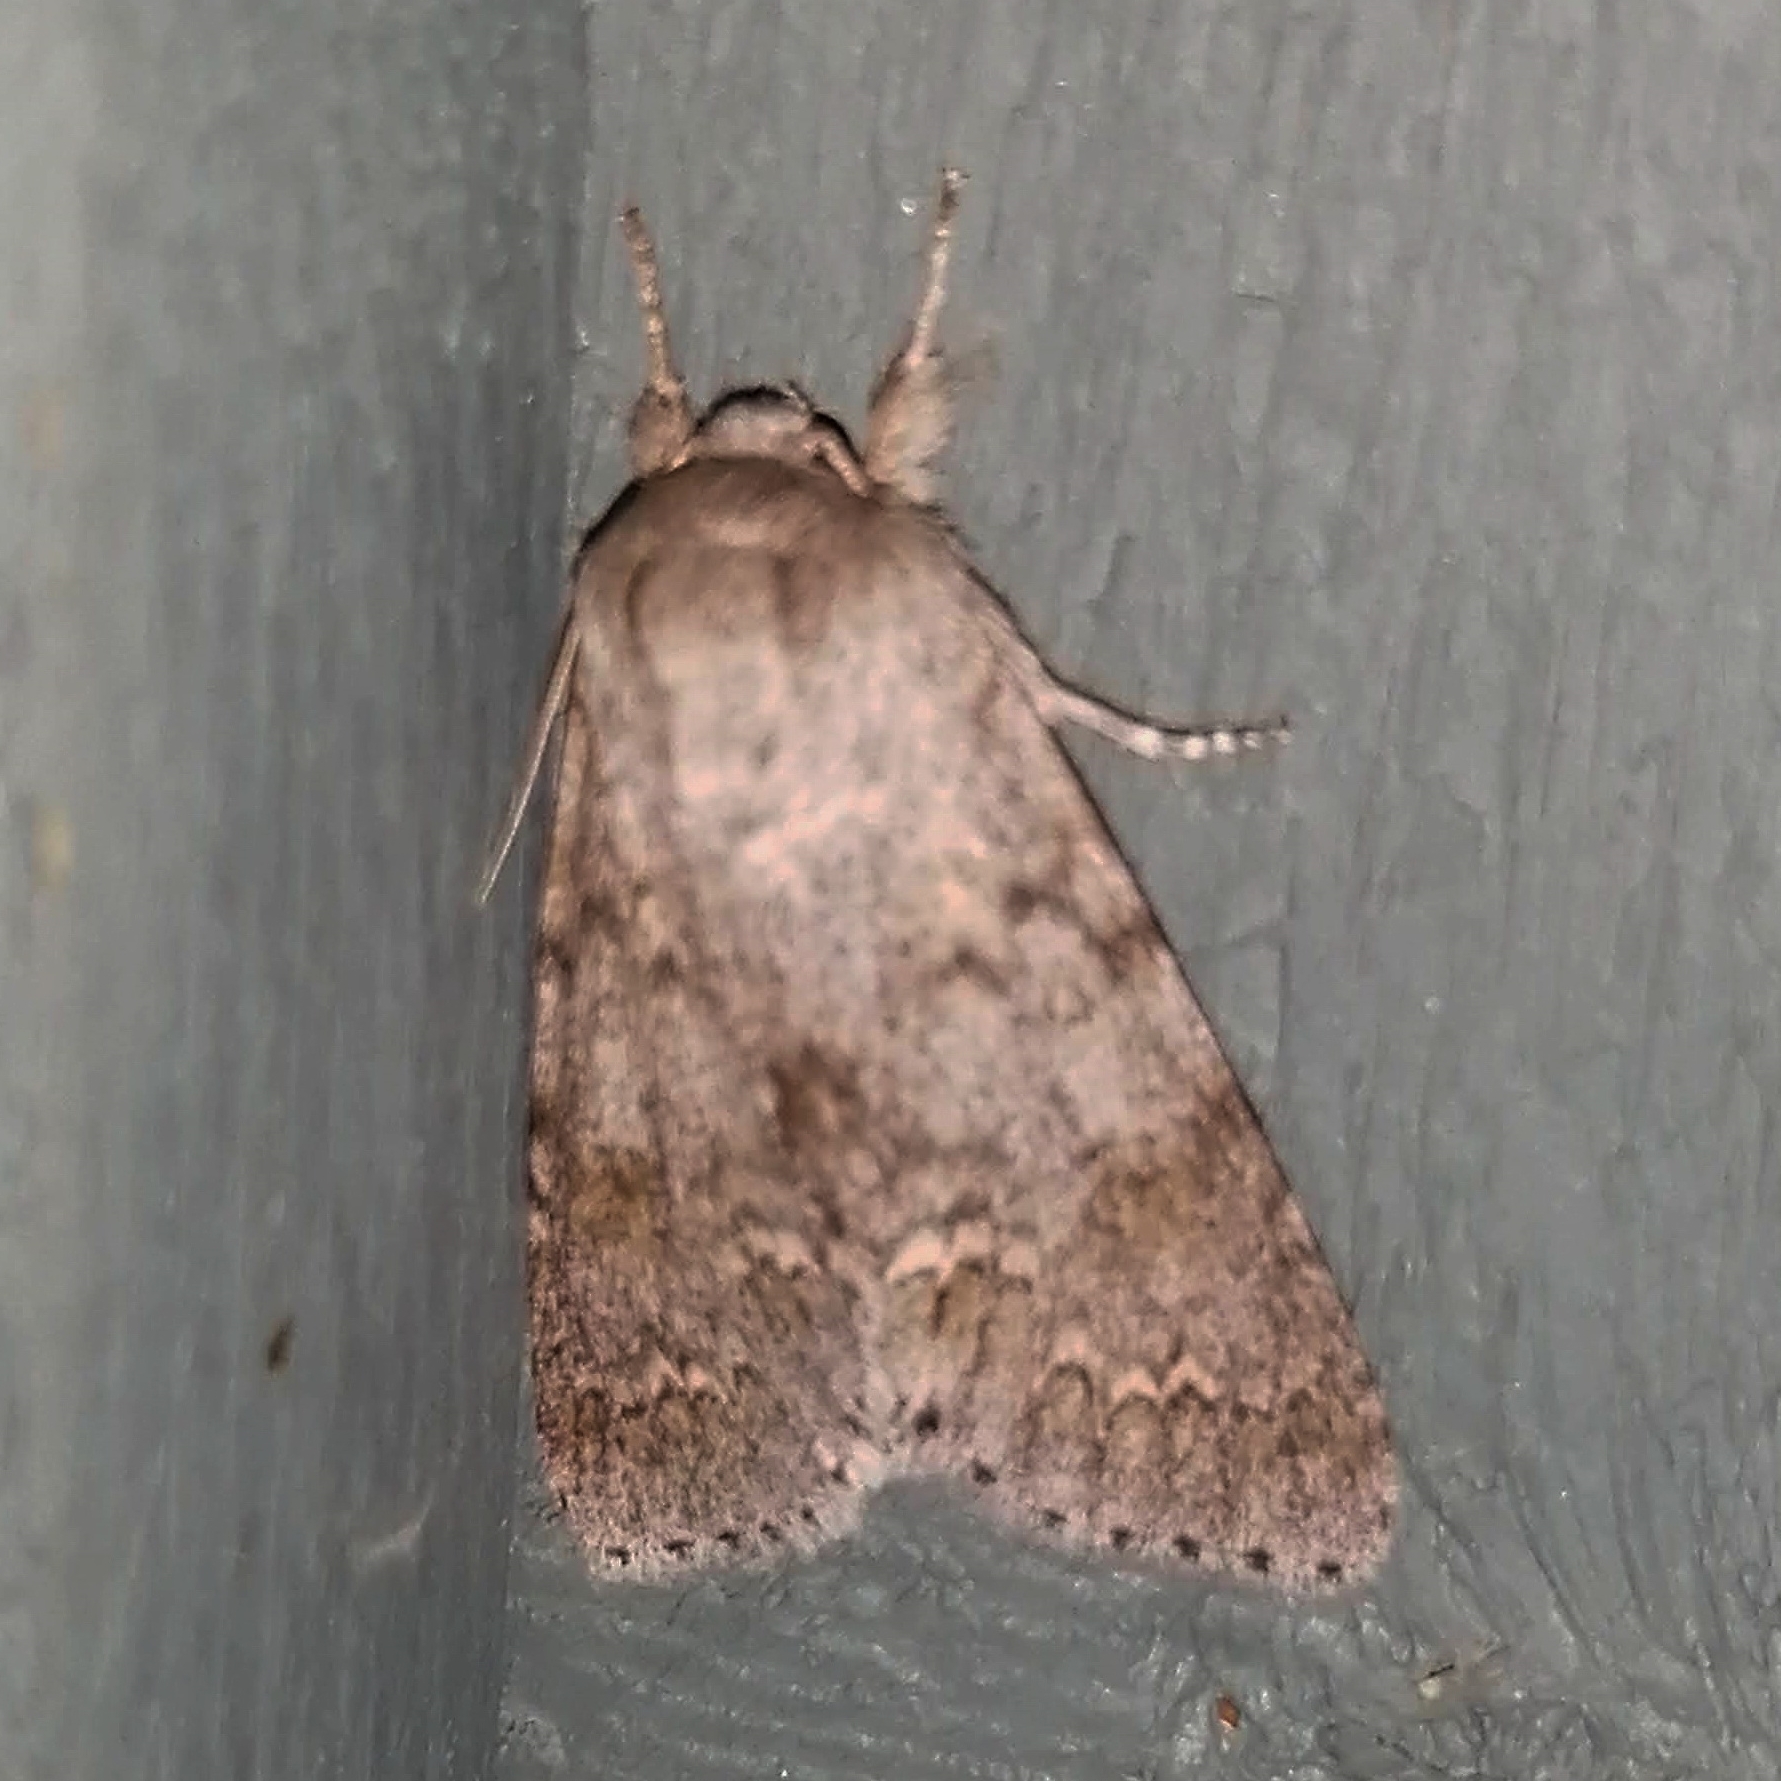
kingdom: Animalia
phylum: Arthropoda
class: Insecta
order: Lepidoptera
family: Noctuidae
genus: Acronicta
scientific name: Acronicta americana
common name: American dagger
